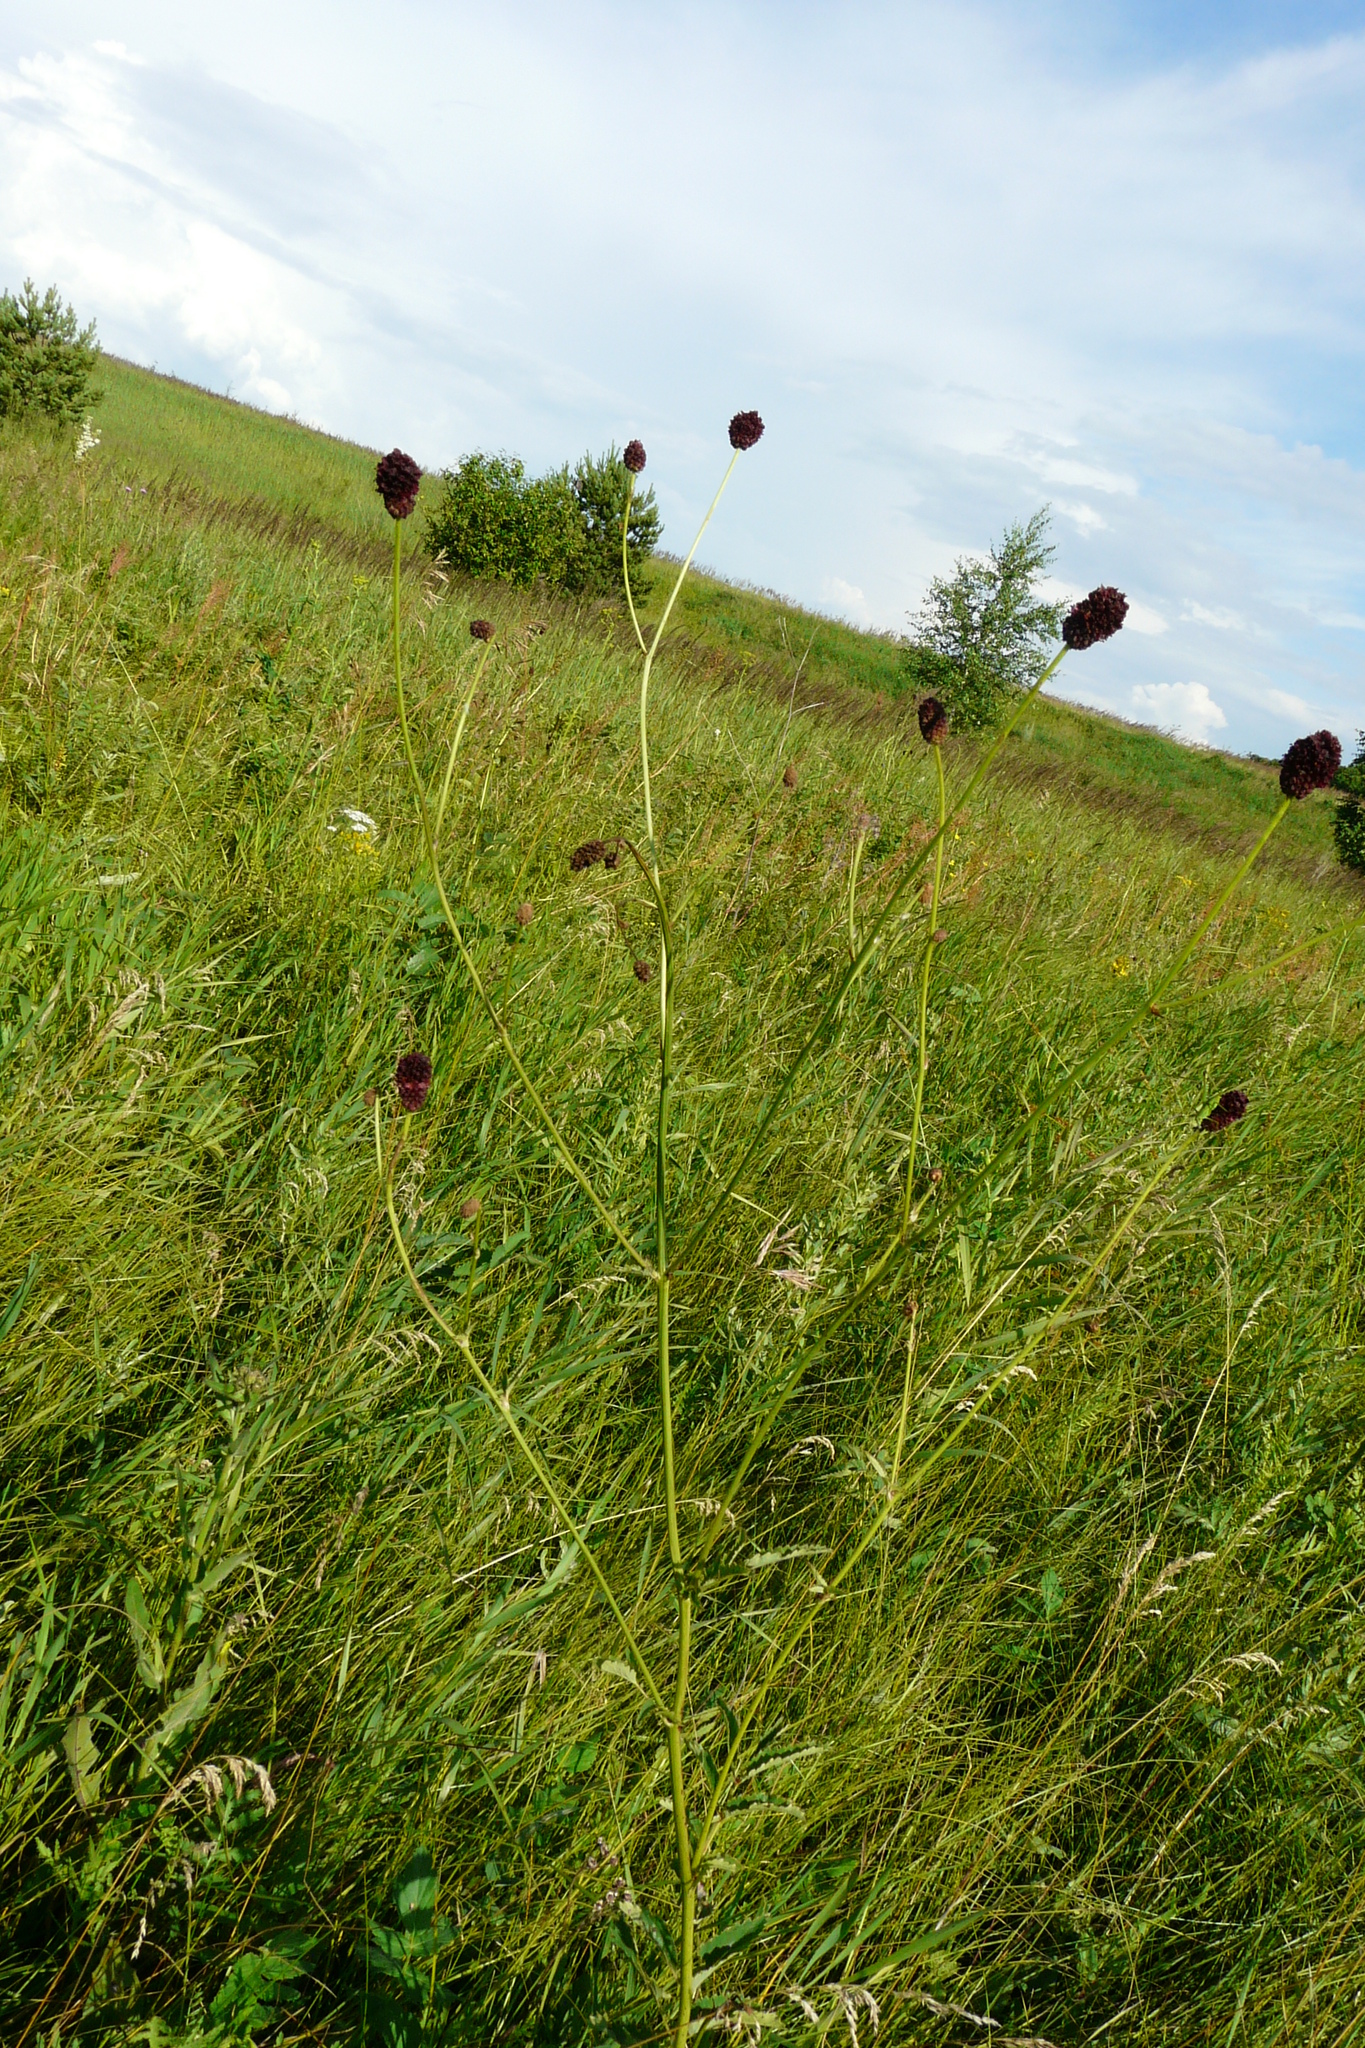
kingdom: Plantae
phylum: Tracheophyta
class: Magnoliopsida
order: Rosales
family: Rosaceae
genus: Sanguisorba
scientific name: Sanguisorba officinalis
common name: Great burnet
